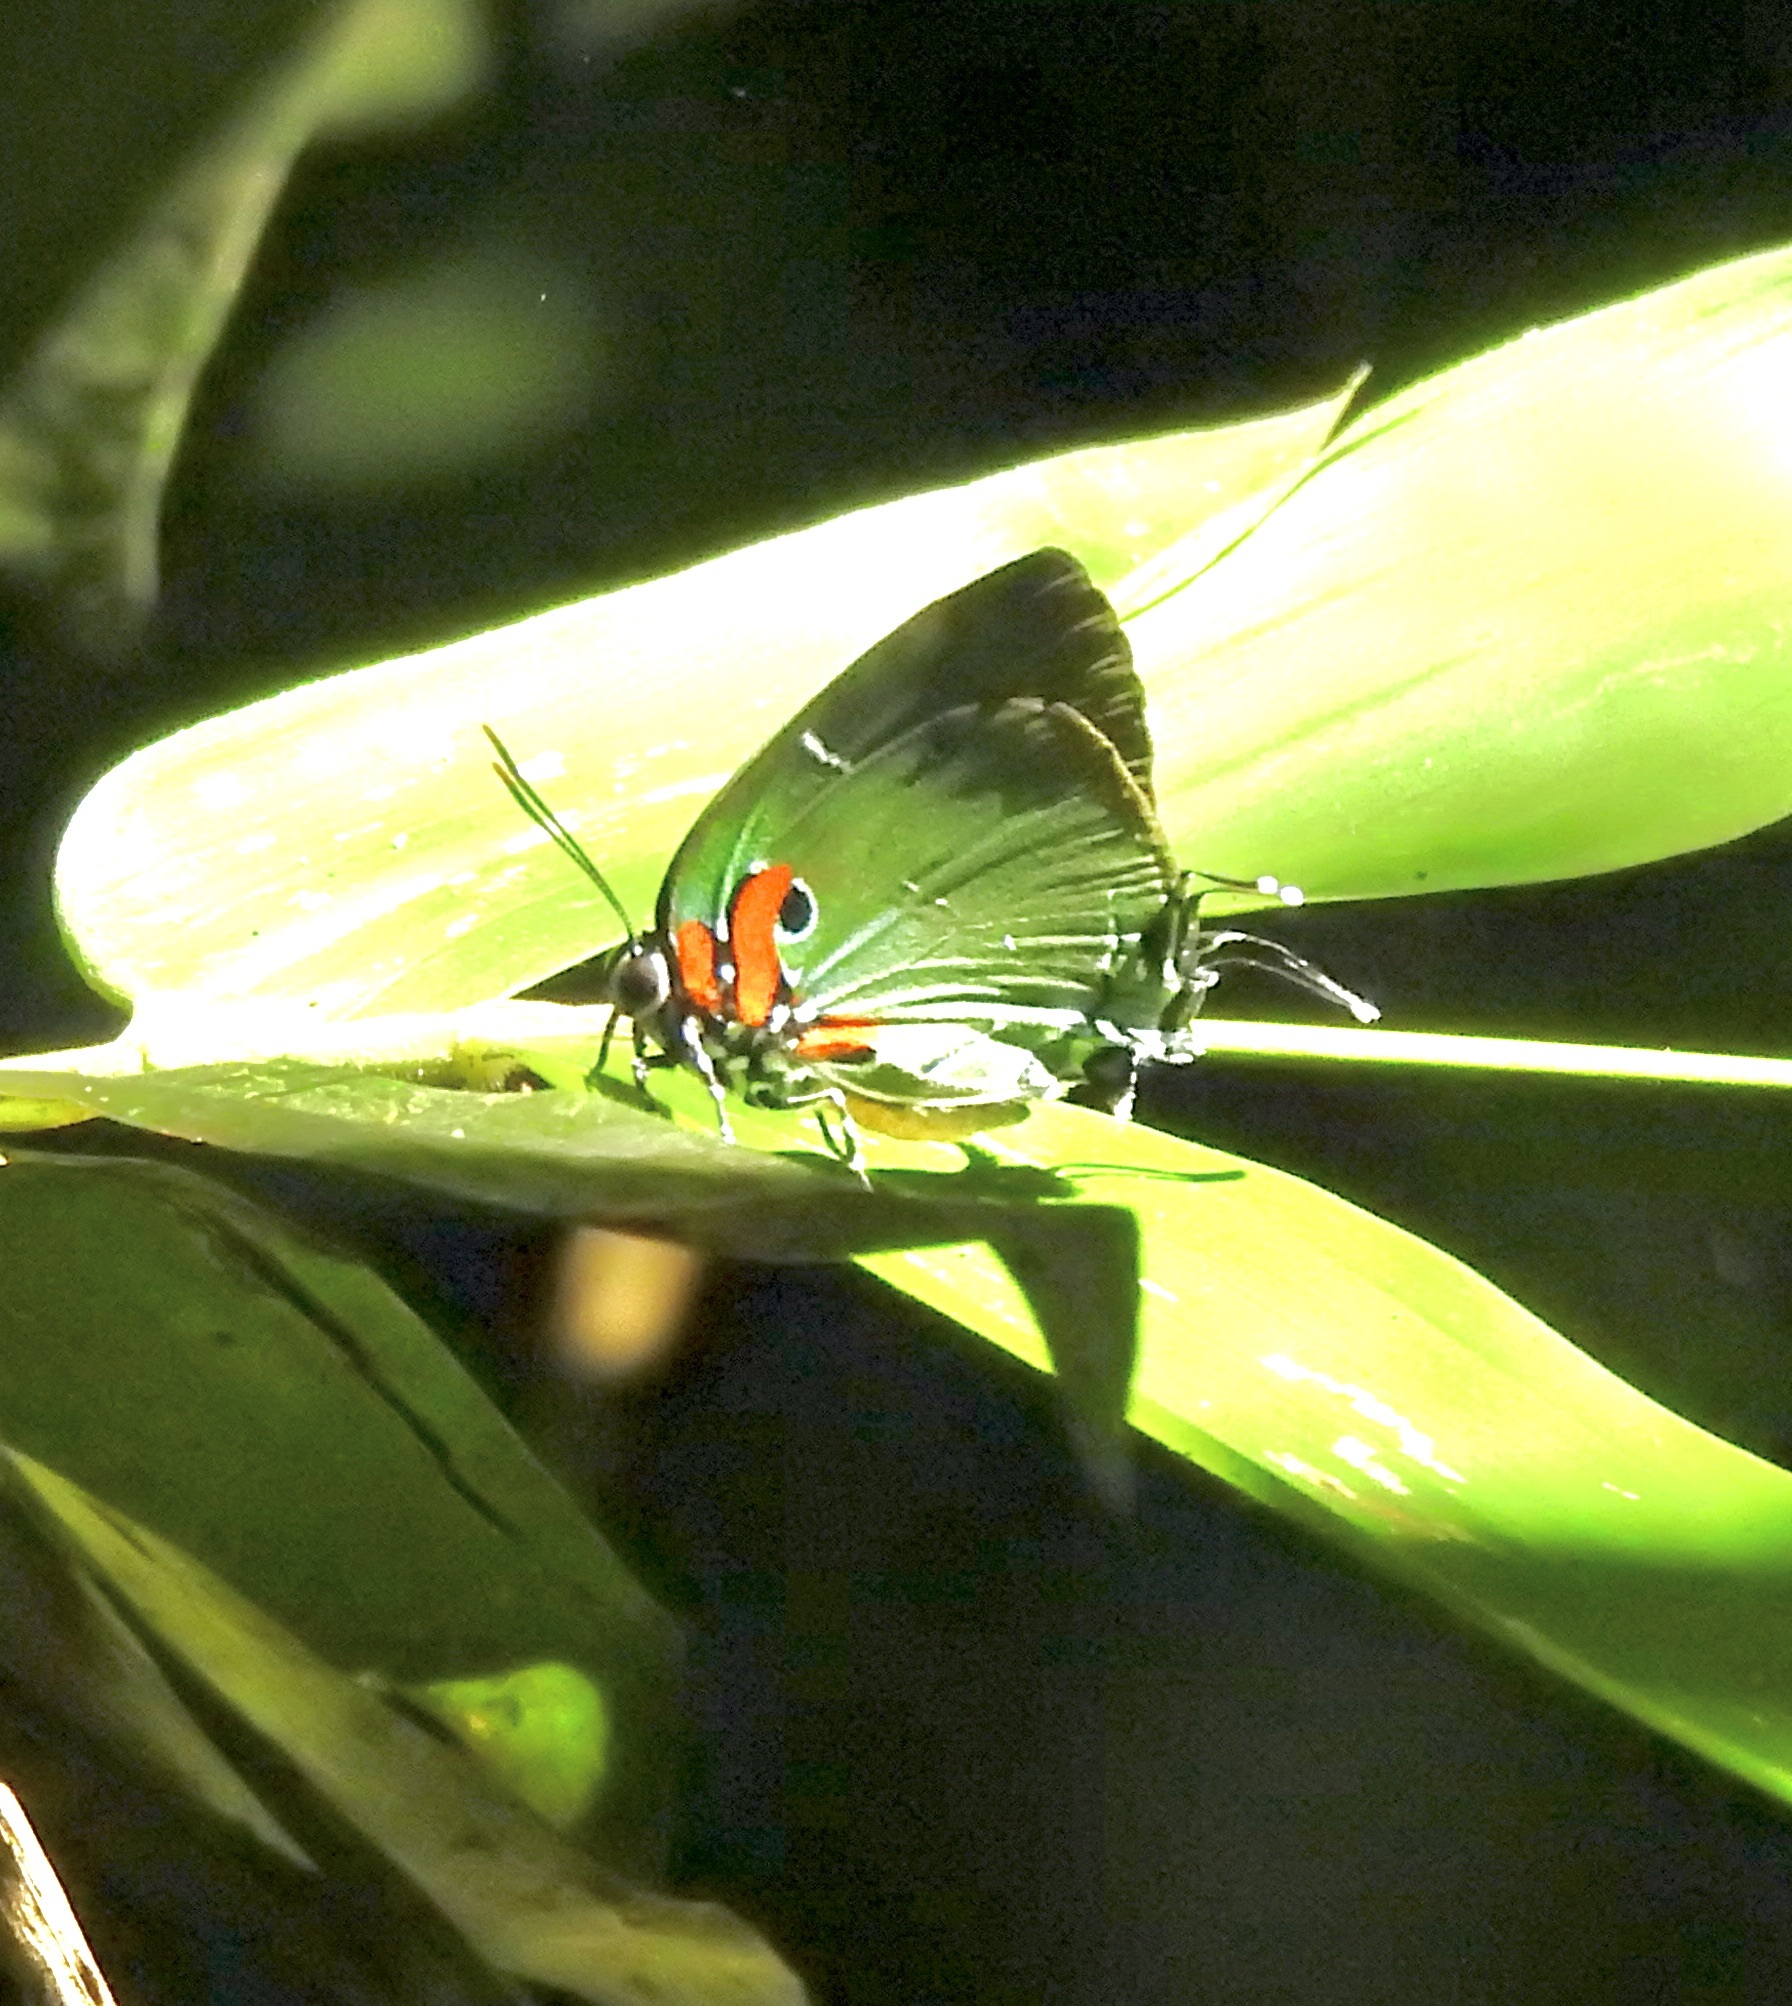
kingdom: Animalia
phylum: Arthropoda
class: Insecta
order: Lepidoptera
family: Lycaenidae
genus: Thecla
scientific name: Thecla inachus
